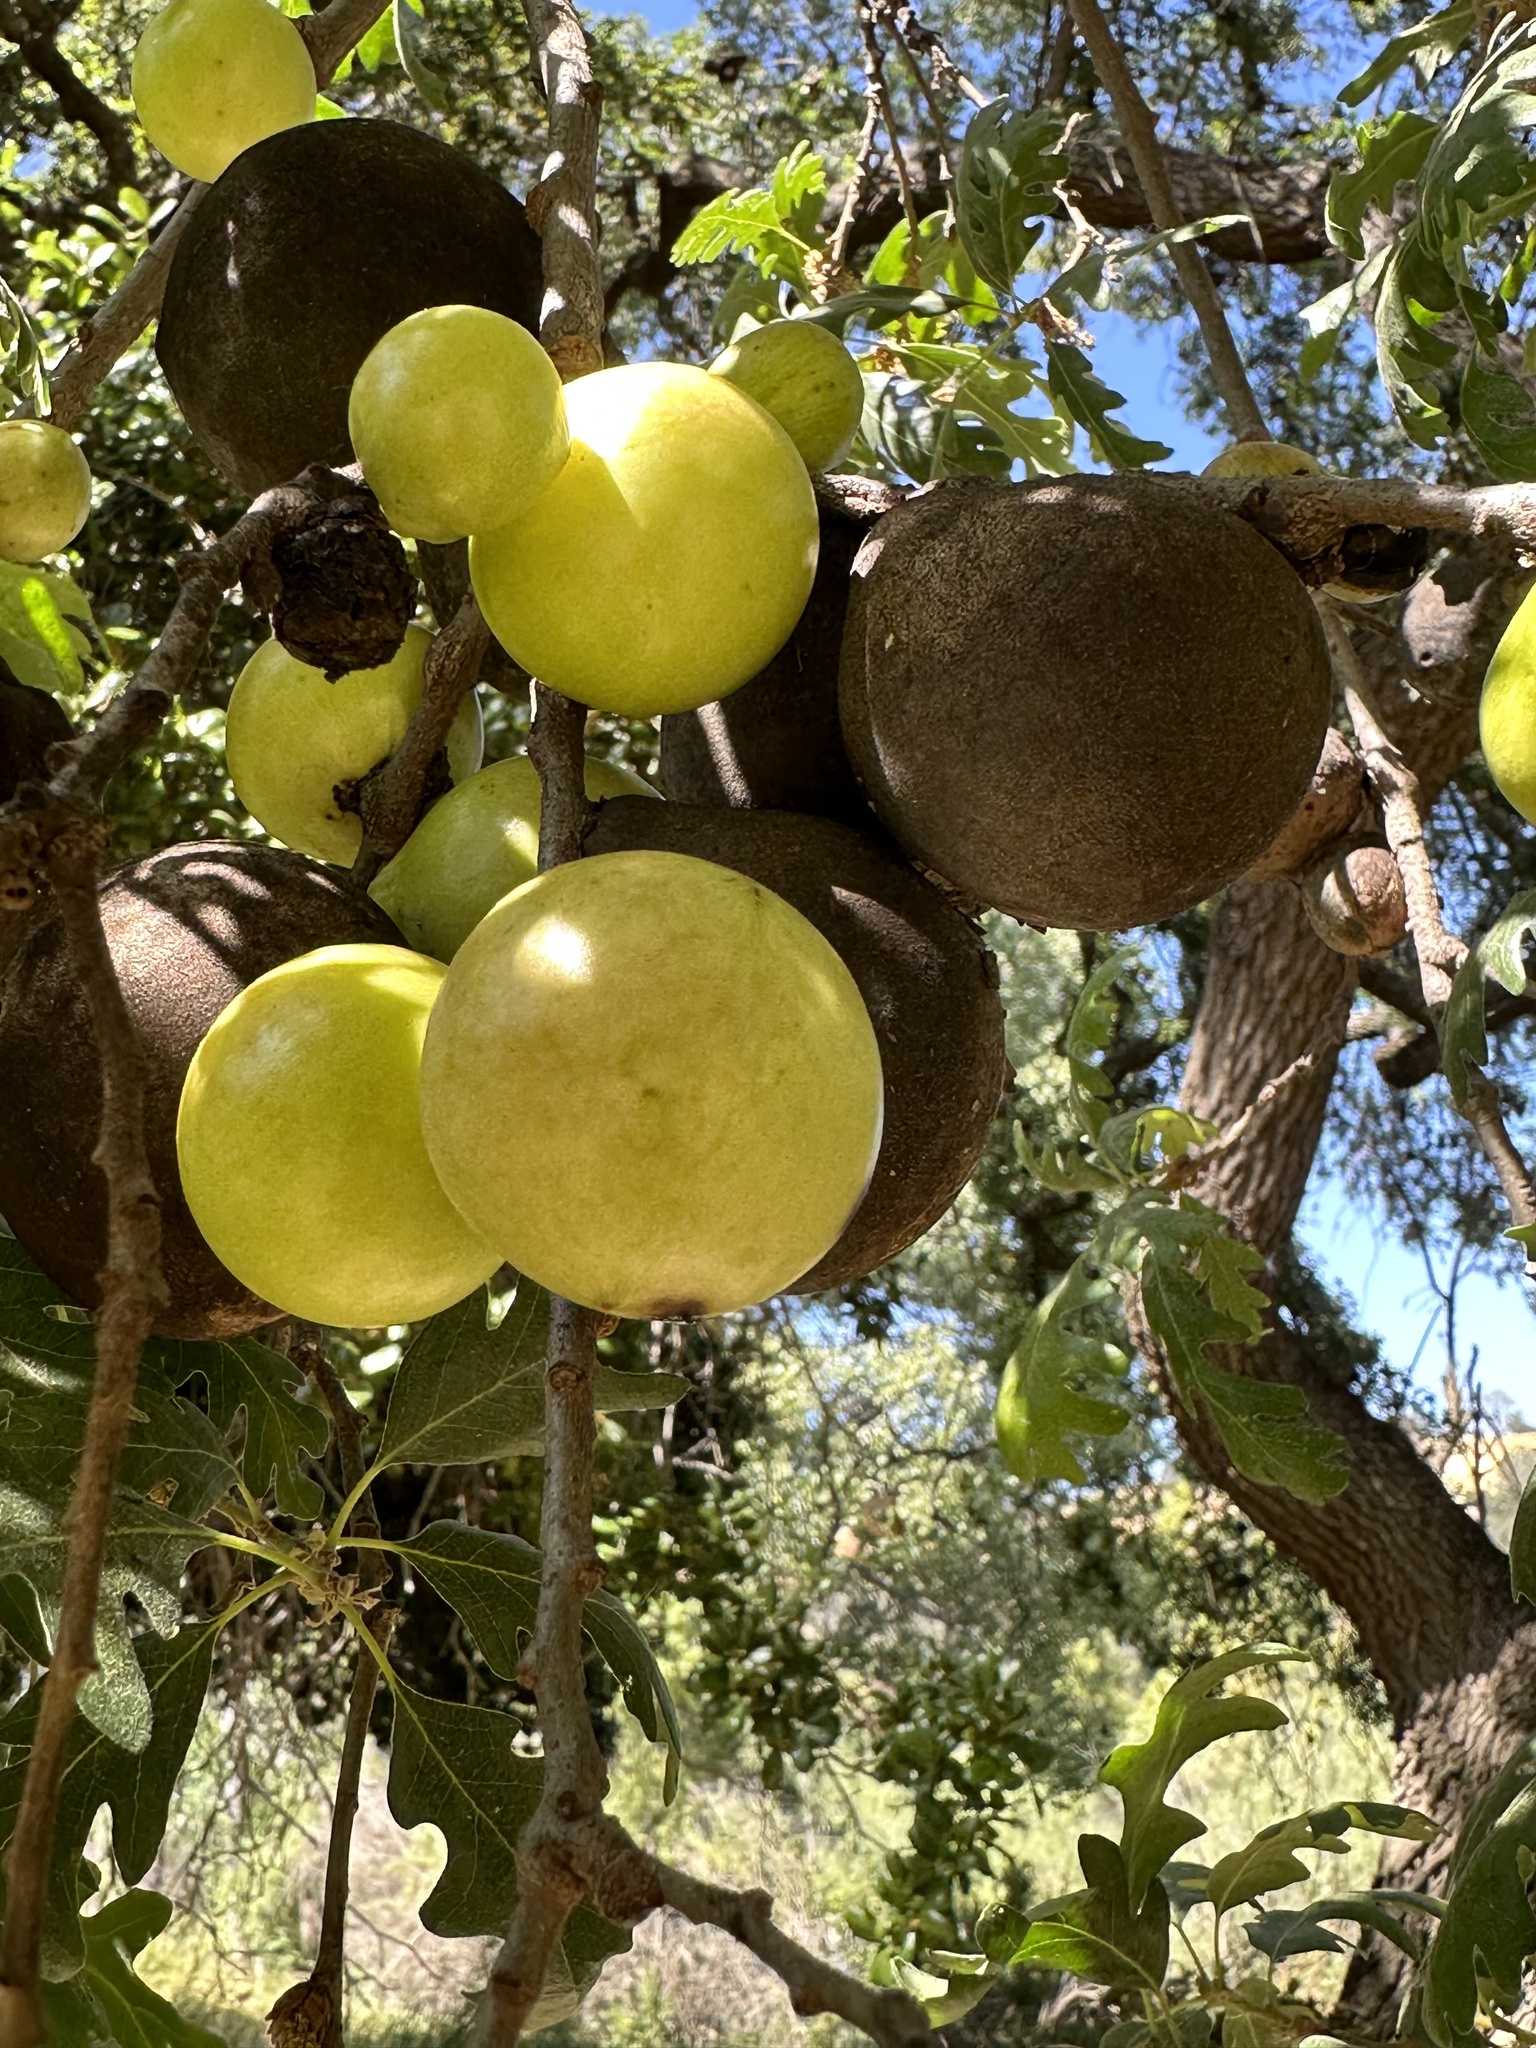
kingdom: Animalia
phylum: Arthropoda
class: Insecta
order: Hymenoptera
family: Cynipidae
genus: Andricus
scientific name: Andricus quercuscalifornicus
